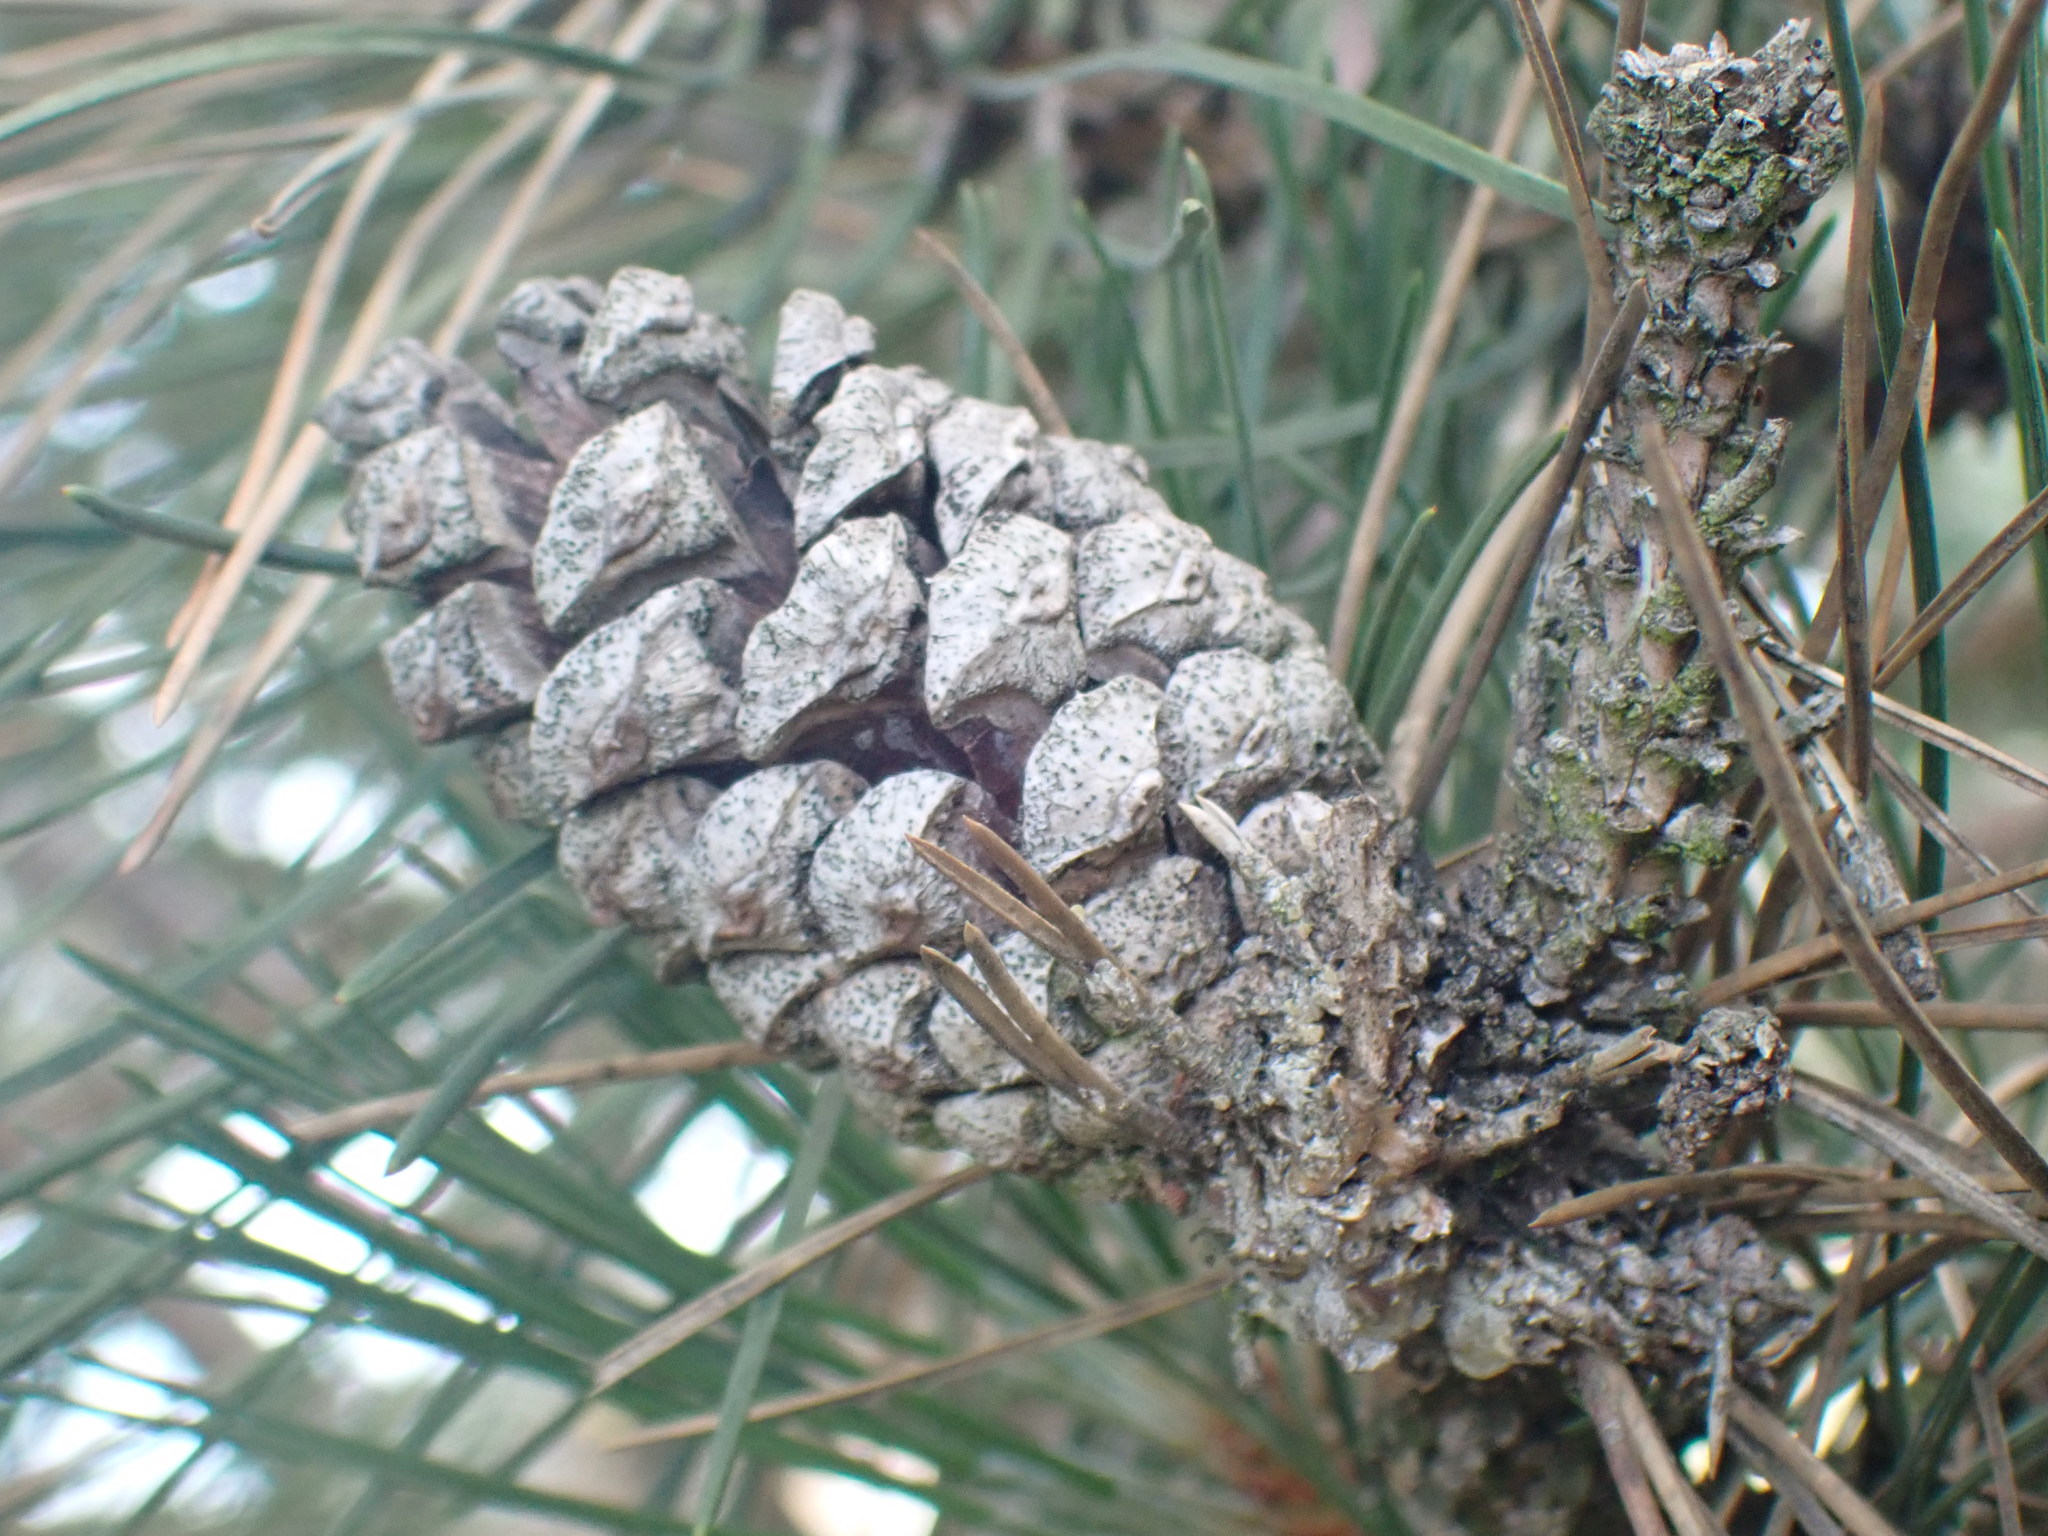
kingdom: Plantae
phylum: Tracheophyta
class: Pinopsida
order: Pinales
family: Pinaceae
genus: Pinus
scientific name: Pinus sylvestris
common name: Scots pine
